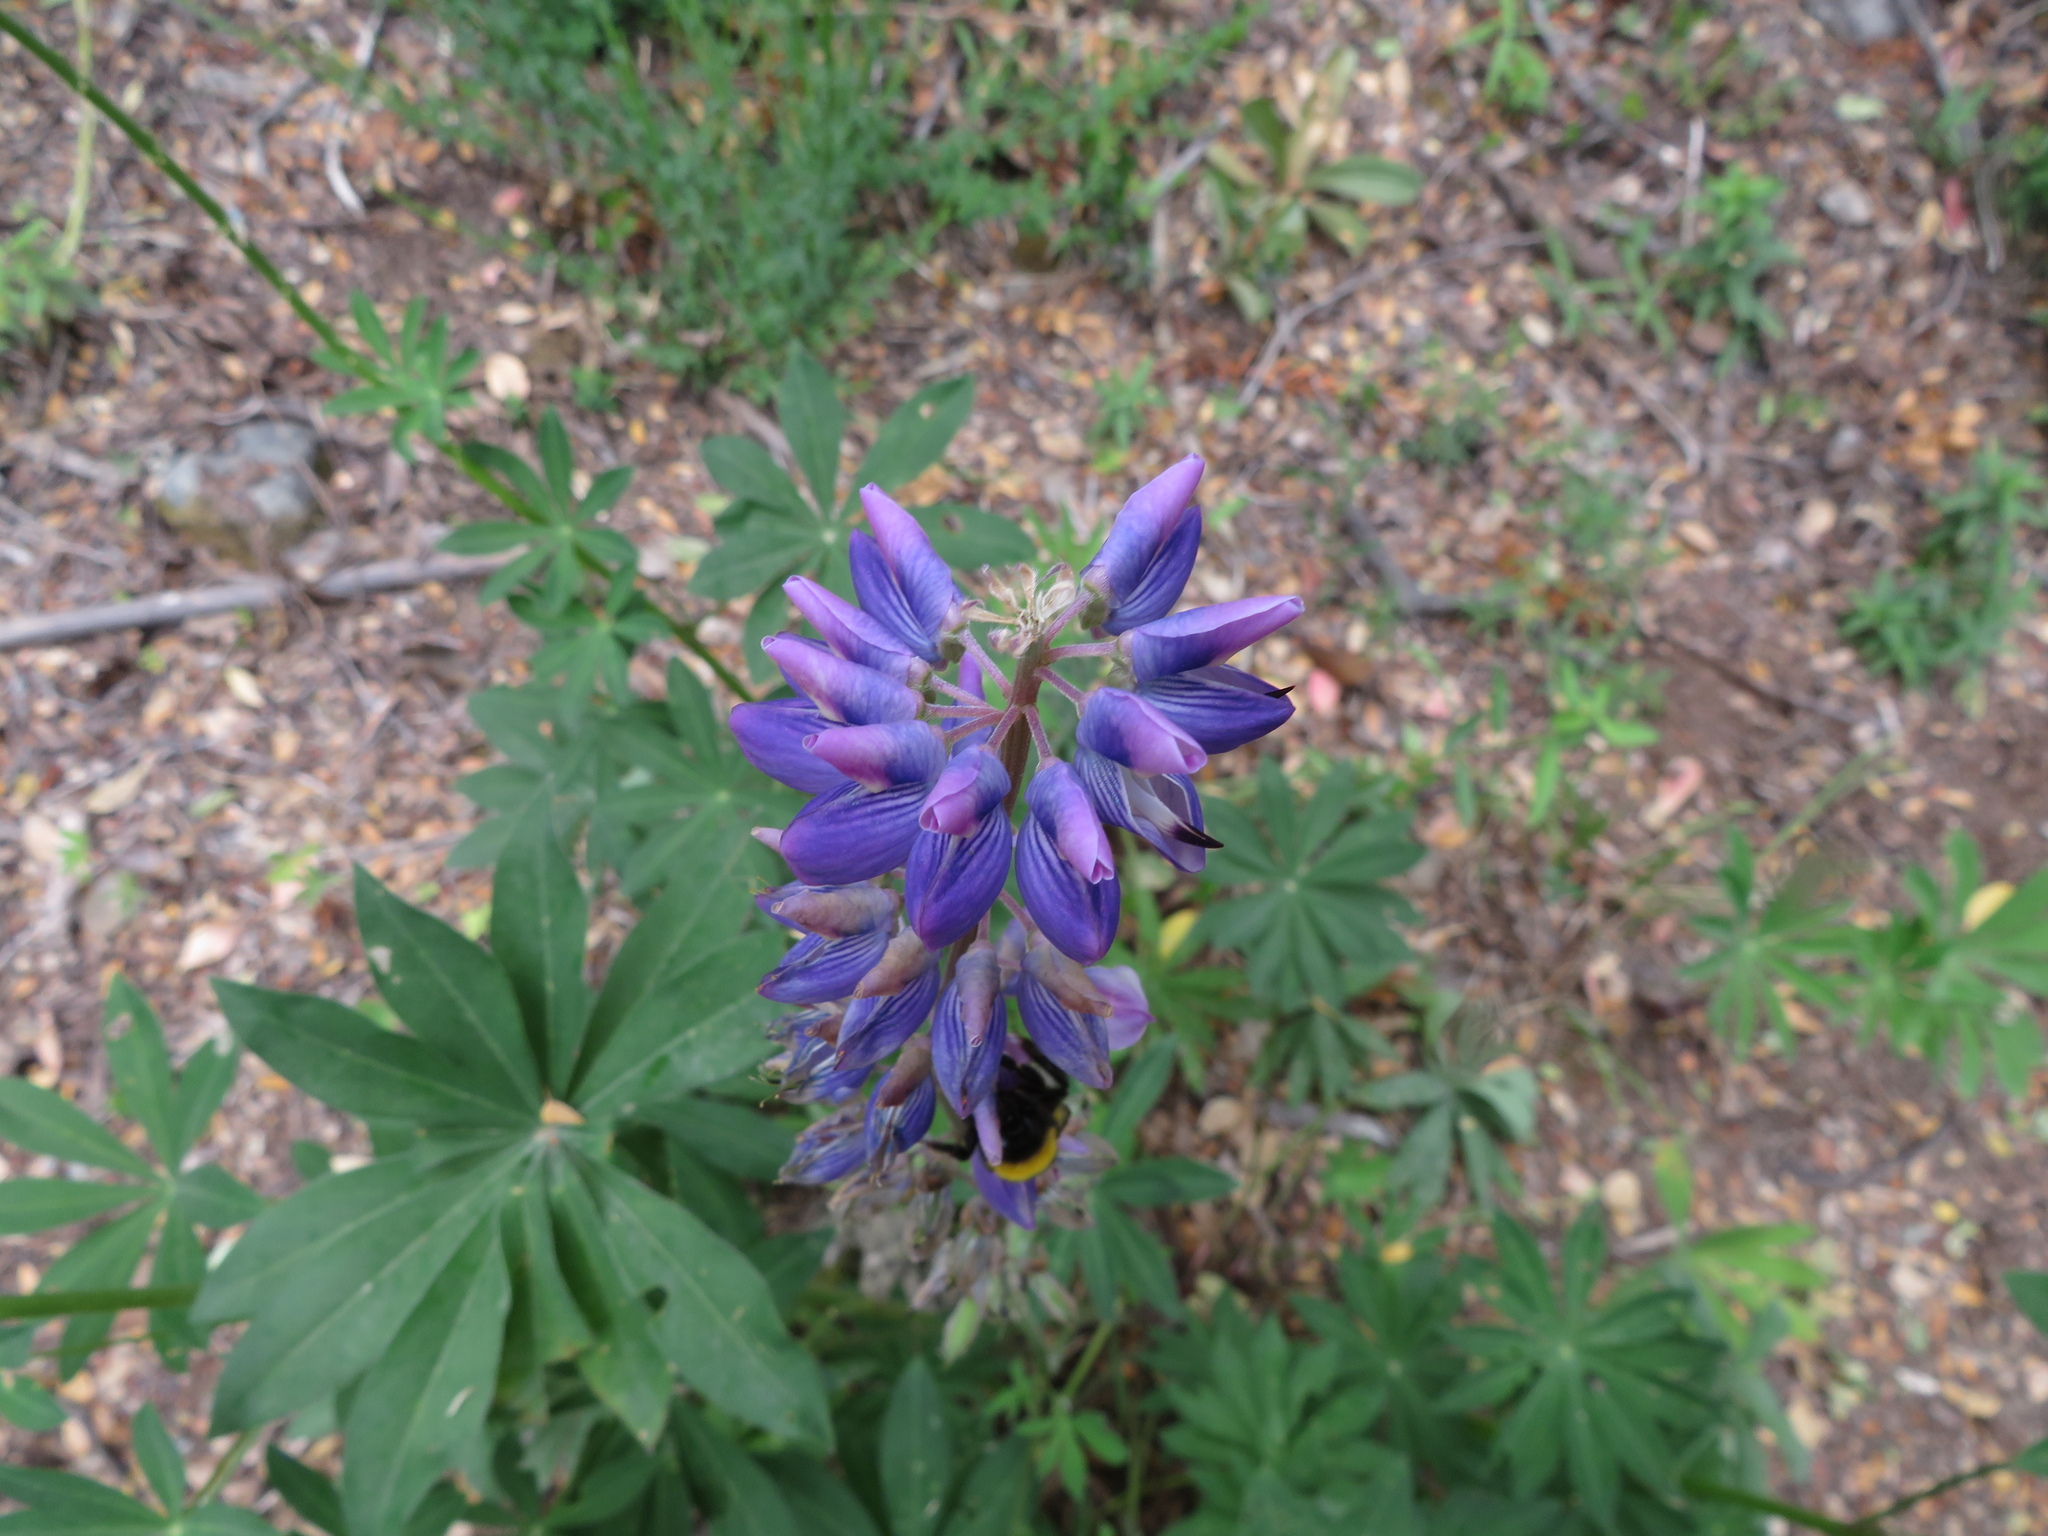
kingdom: Plantae
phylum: Tracheophyta
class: Magnoliopsida
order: Fabales
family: Fabaceae
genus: Lupinus
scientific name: Lupinus polyphyllus
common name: Garden lupin
